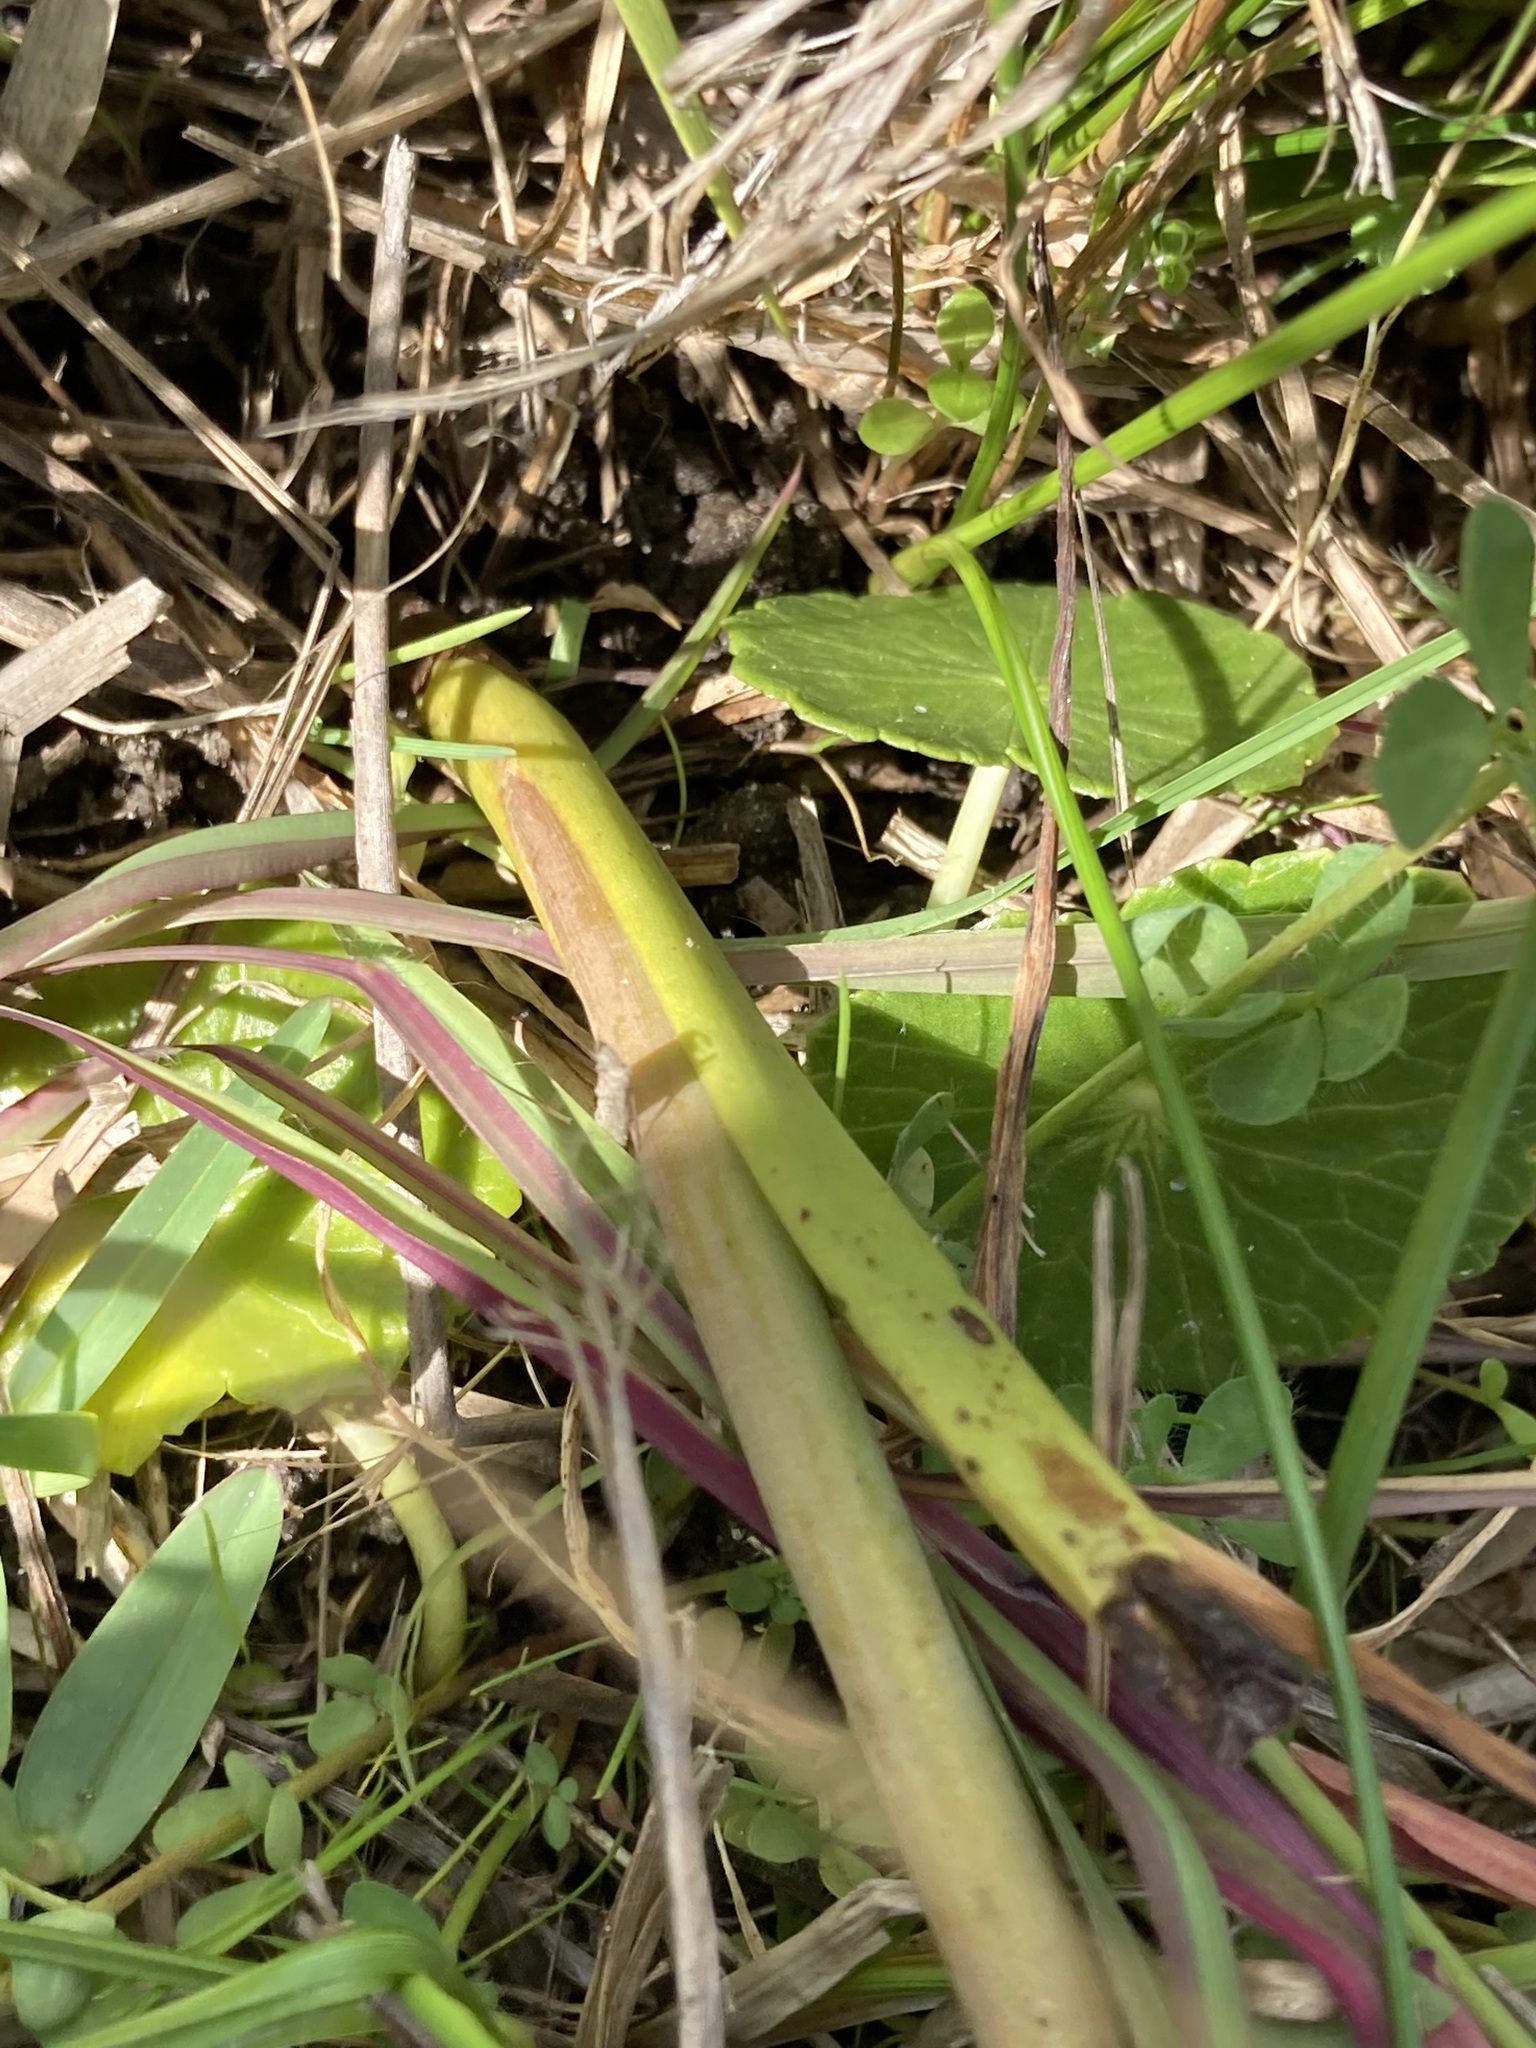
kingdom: Plantae
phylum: Tracheophyta
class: Liliopsida
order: Asparagales
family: Orchidaceae
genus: Thelymitra
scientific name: Thelymitra planicola
